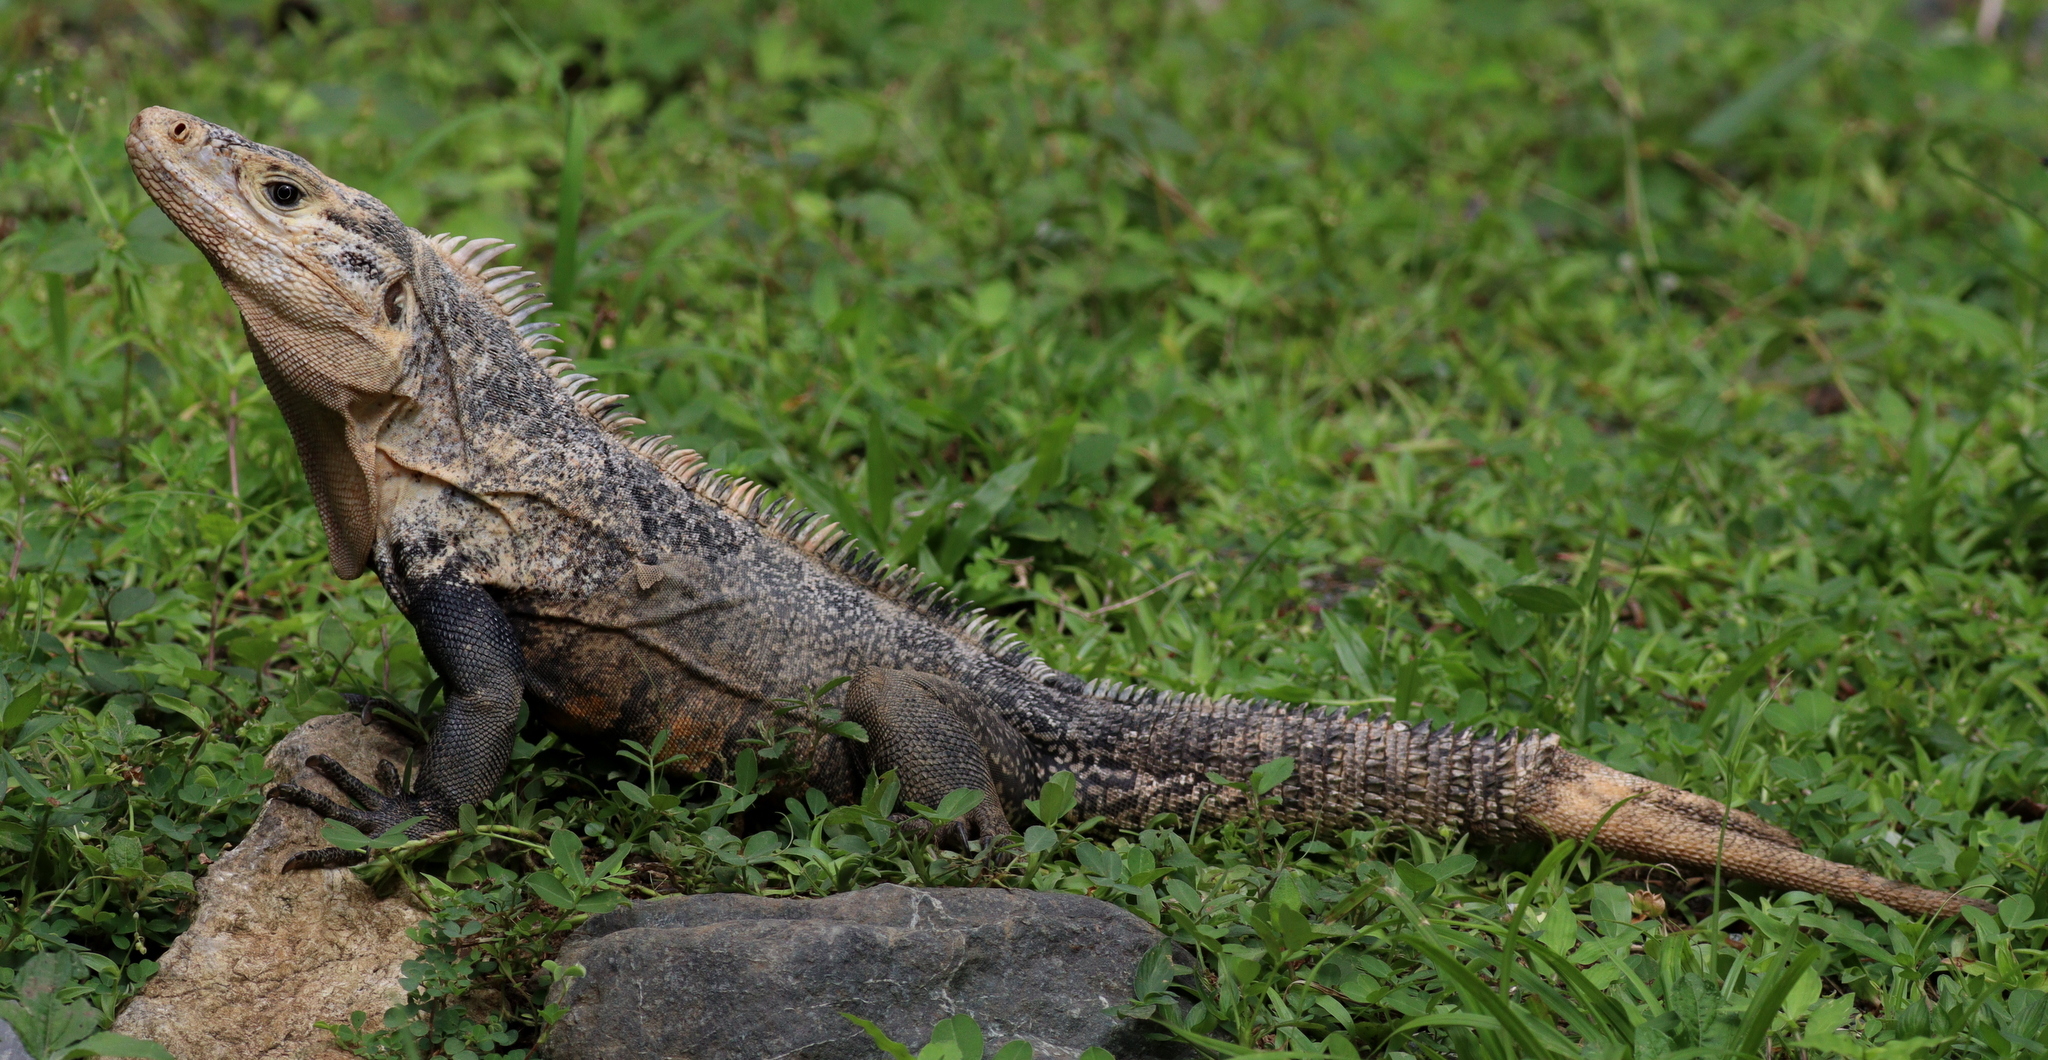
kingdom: Animalia
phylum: Chordata
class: Squamata
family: Iguanidae
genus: Ctenosaura
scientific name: Ctenosaura similis
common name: Black spiny-tailed iguana
